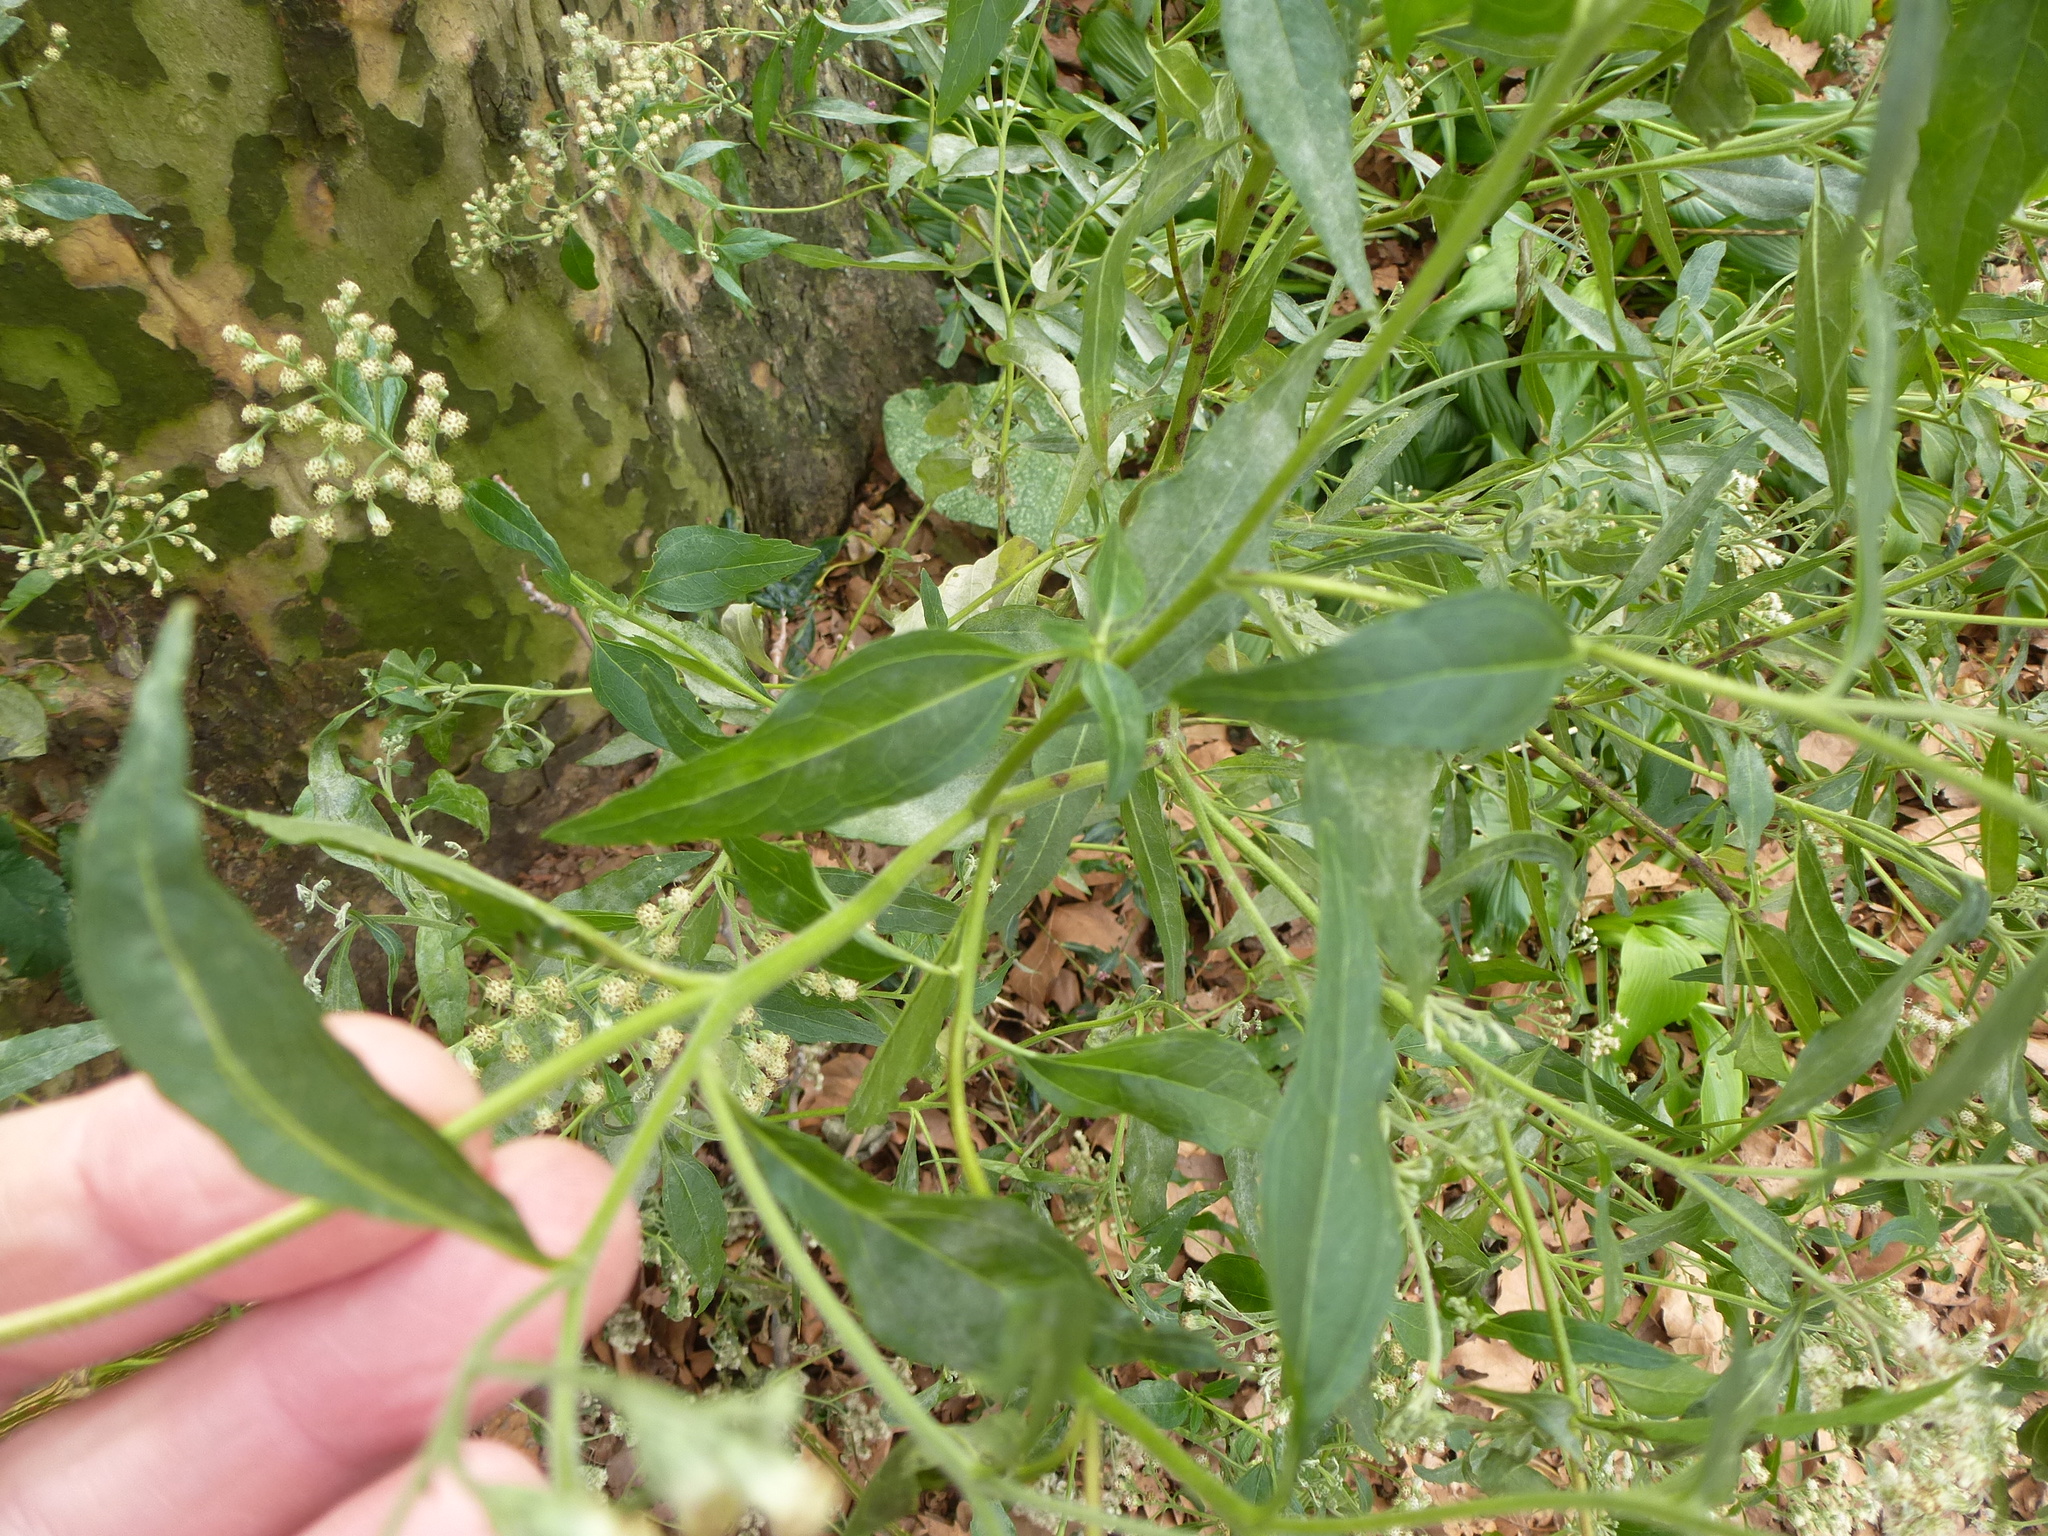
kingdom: Plantae
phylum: Tracheophyta
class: Magnoliopsida
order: Asterales
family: Asteraceae
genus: Eupatorium
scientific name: Eupatorium serotinum
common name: Late boneset
